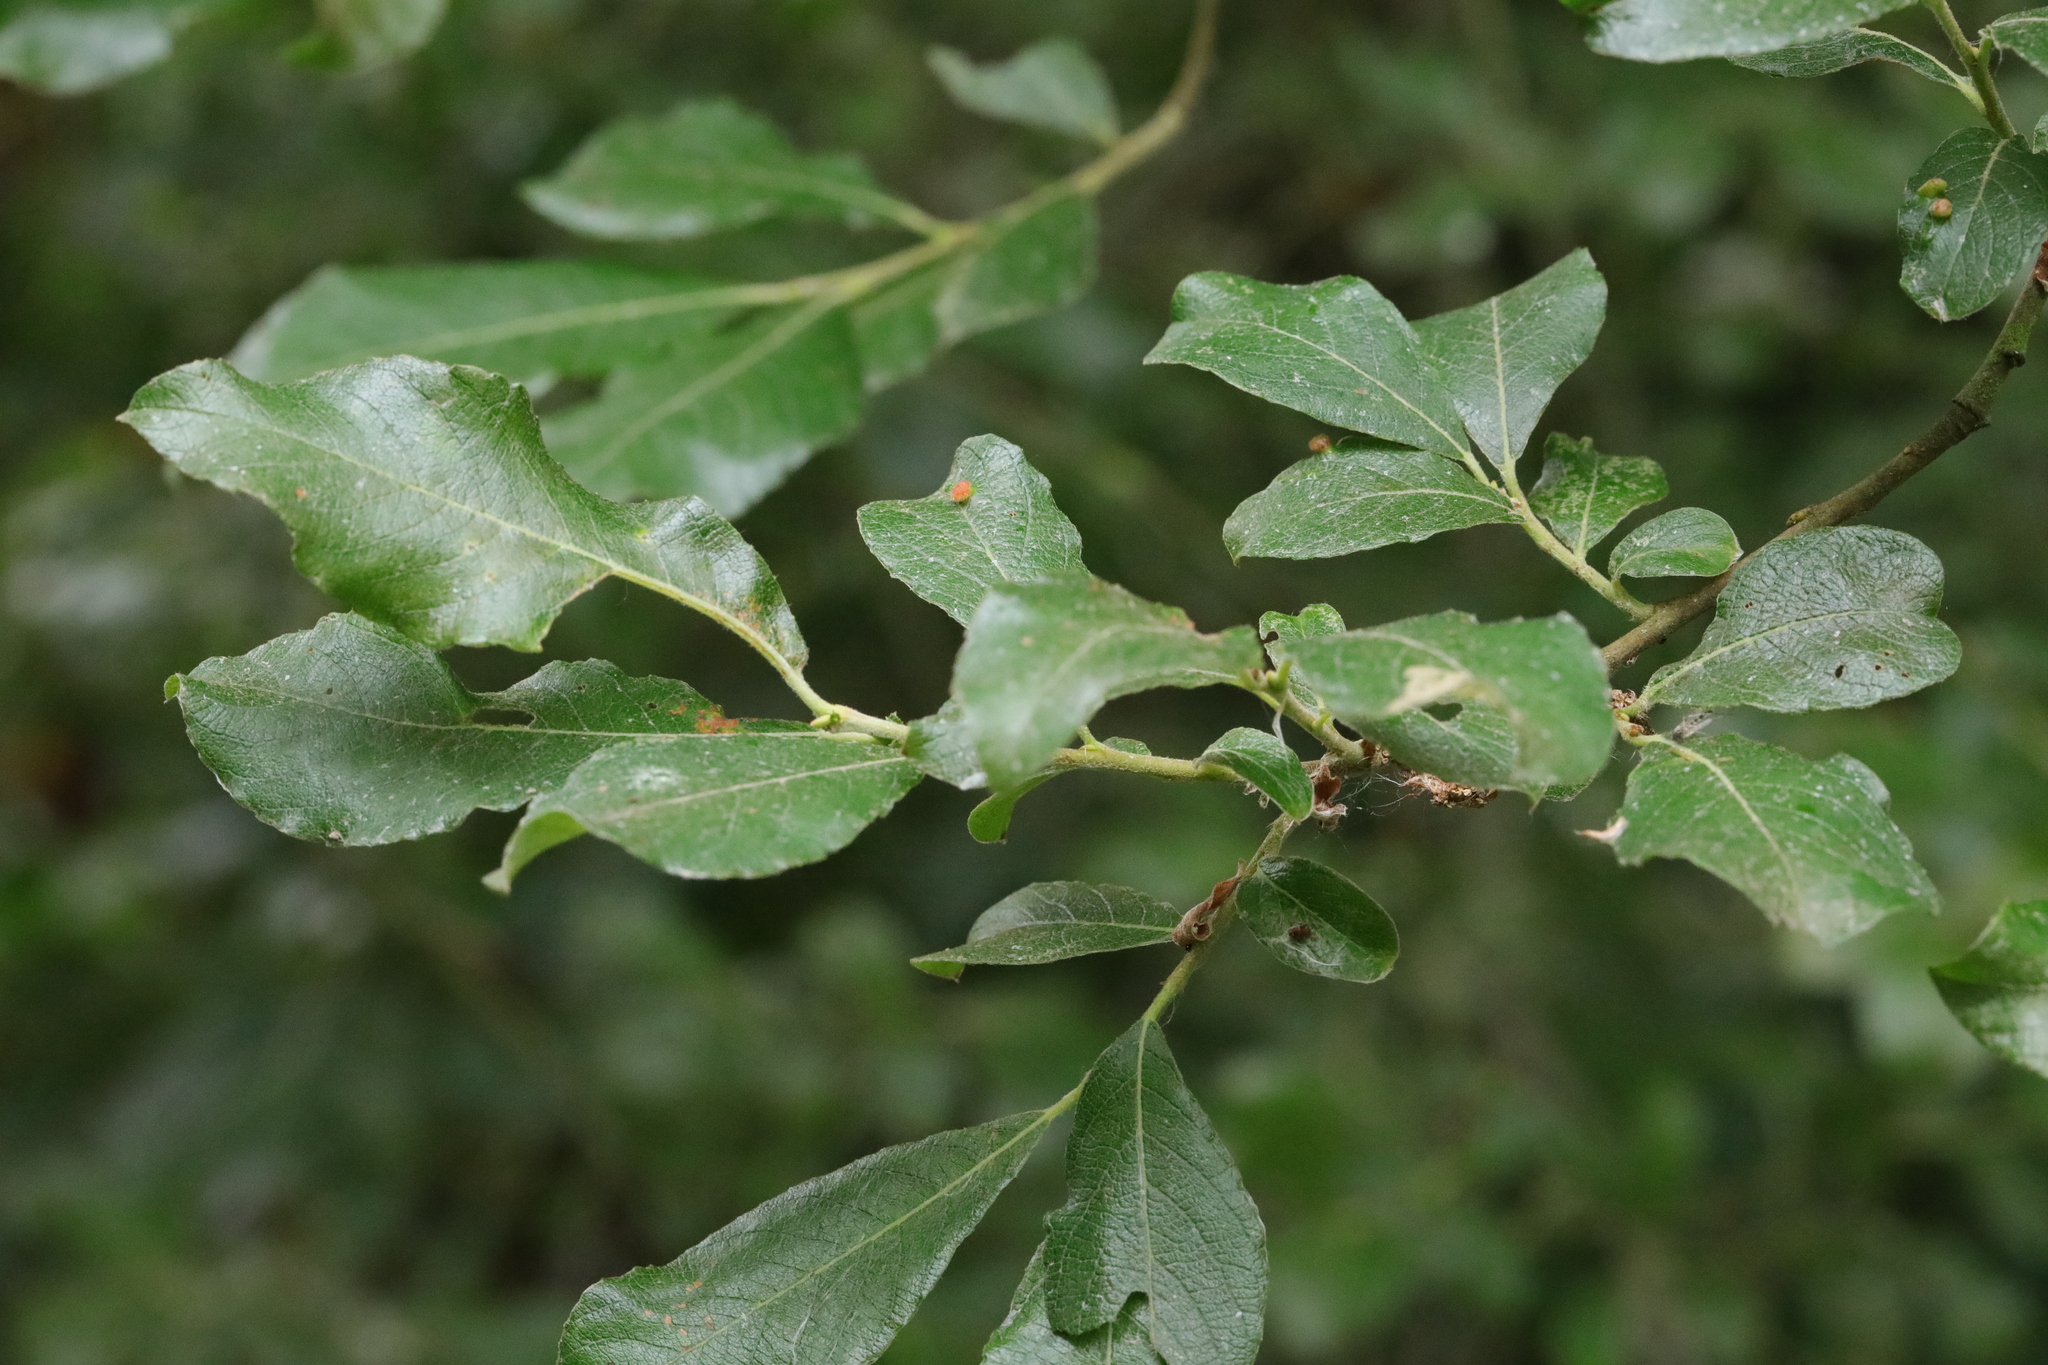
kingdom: Plantae
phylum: Tracheophyta
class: Magnoliopsida
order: Malpighiales
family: Salicaceae
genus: Salix
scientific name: Salix cinerea
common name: Common sallow
